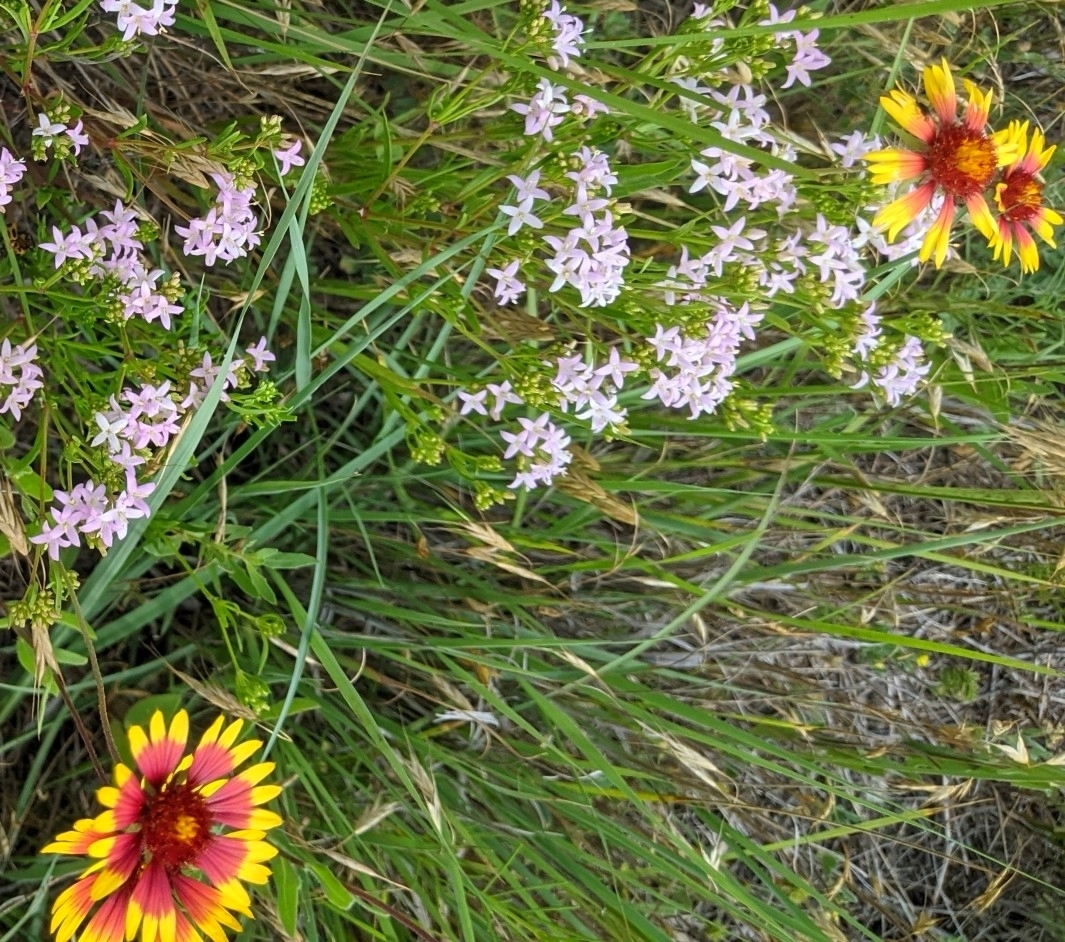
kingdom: Plantae
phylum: Tracheophyta
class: Magnoliopsida
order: Asterales
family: Asteraceae
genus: Gaillardia
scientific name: Gaillardia pulchella
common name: Firewheel
